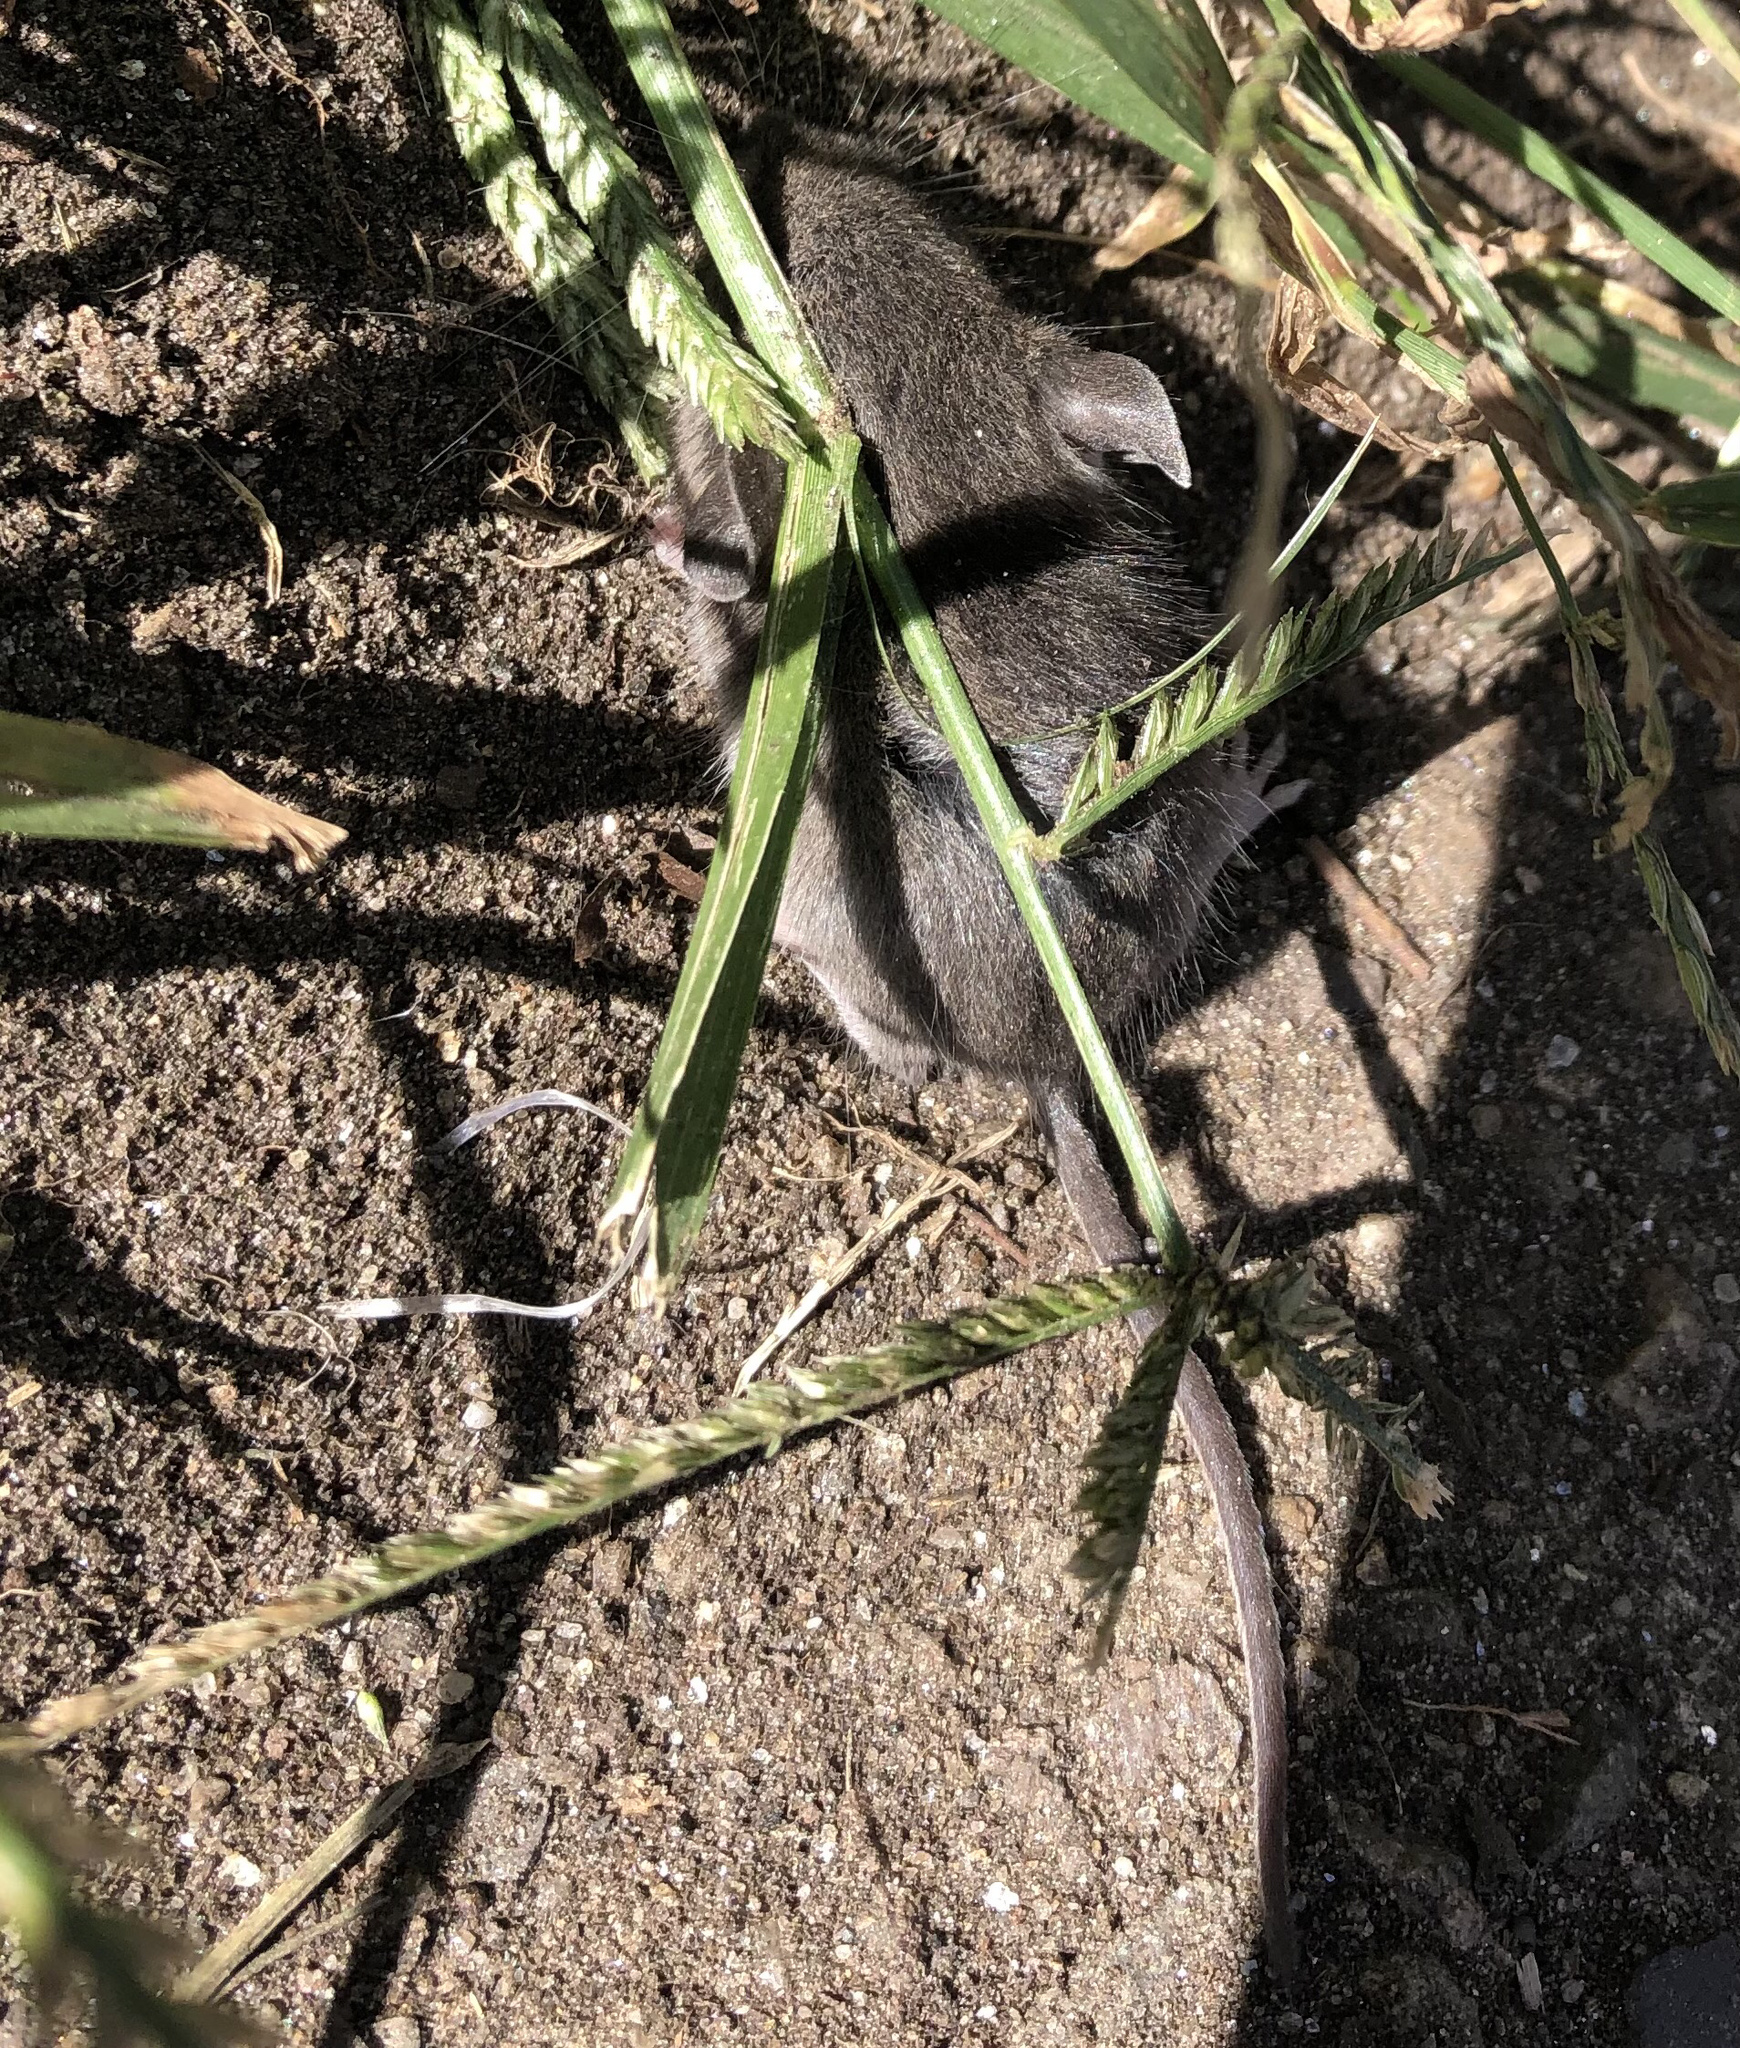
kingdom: Animalia
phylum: Chordata
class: Mammalia
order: Rodentia
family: Muridae
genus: Mus
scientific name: Mus musculus
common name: House mouse
